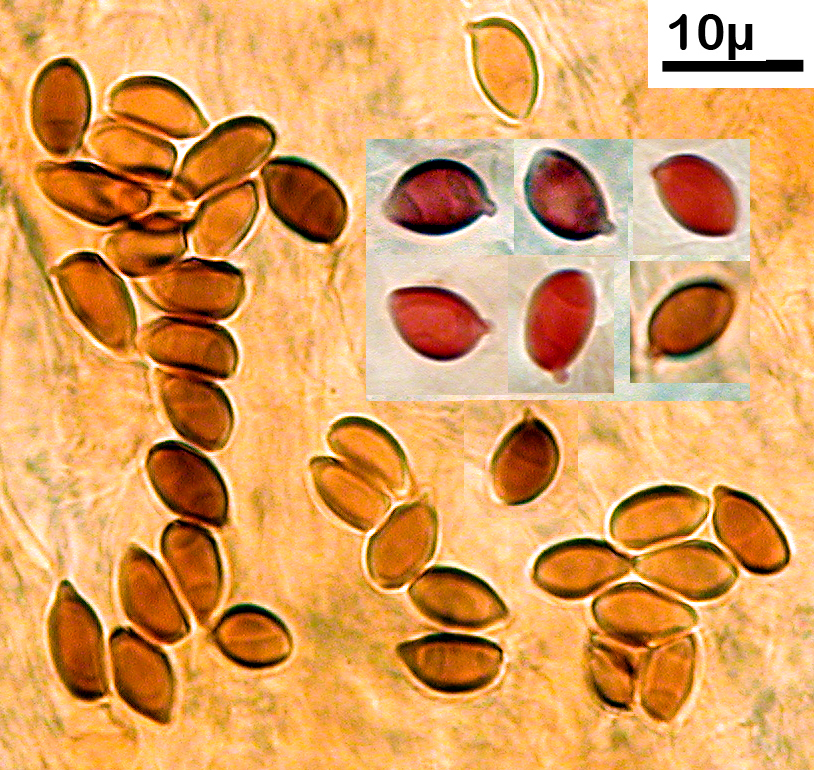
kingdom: Fungi
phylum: Basidiomycota
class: Agaricomycetes
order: Agaricales
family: Agaricaceae
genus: Lepiota
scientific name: Lepiota haemorrhagica
